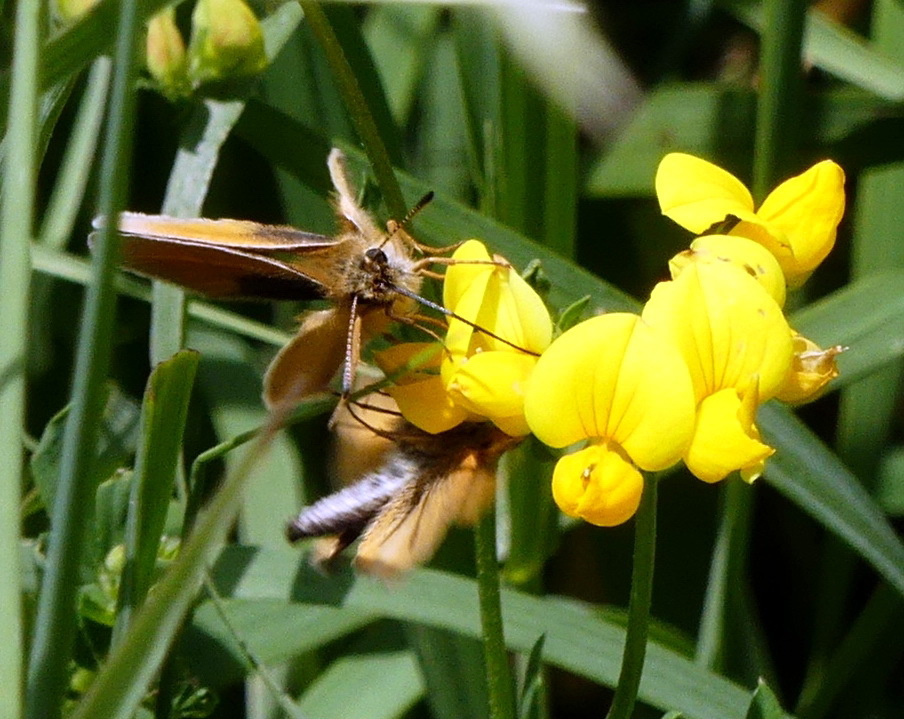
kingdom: Animalia
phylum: Arthropoda
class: Insecta
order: Lepidoptera
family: Hesperiidae
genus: Thymelicus
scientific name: Thymelicus lineola
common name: Essex skipper
